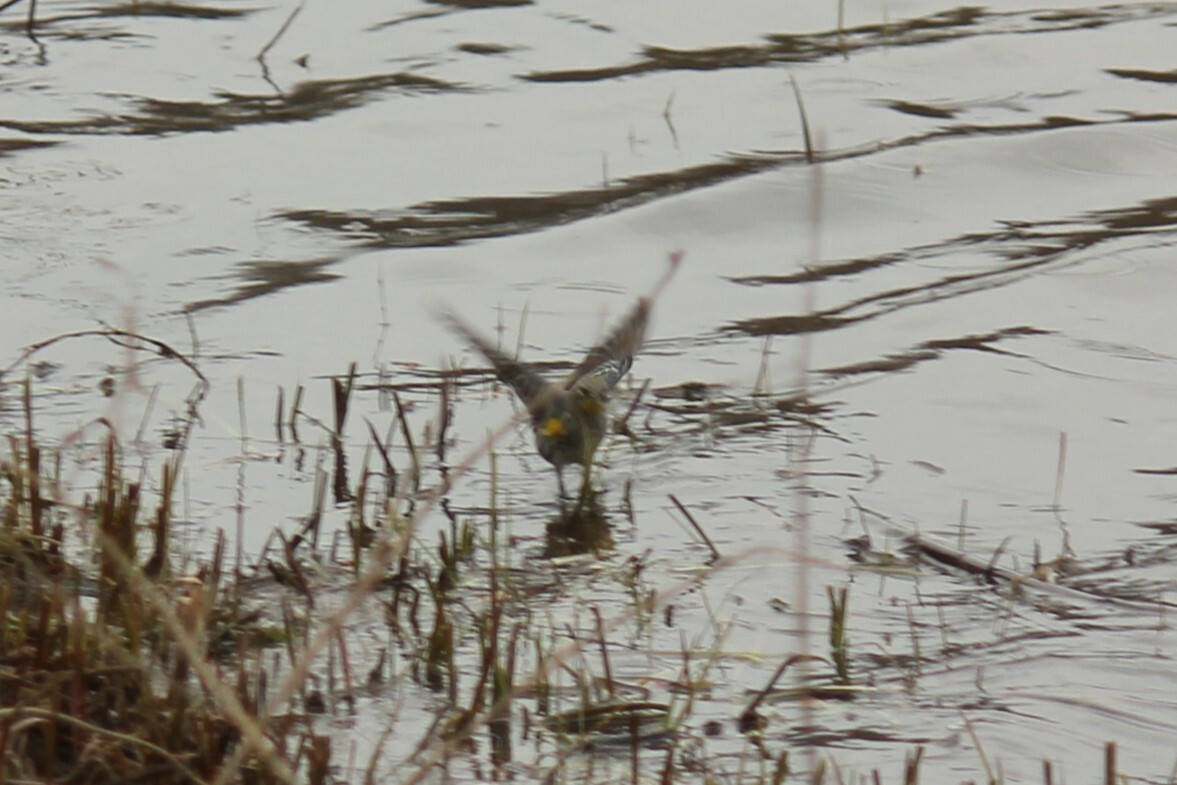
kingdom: Animalia
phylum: Chordata
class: Aves
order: Passeriformes
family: Parulidae
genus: Setophaga
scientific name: Setophaga coronata
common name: Myrtle warbler
